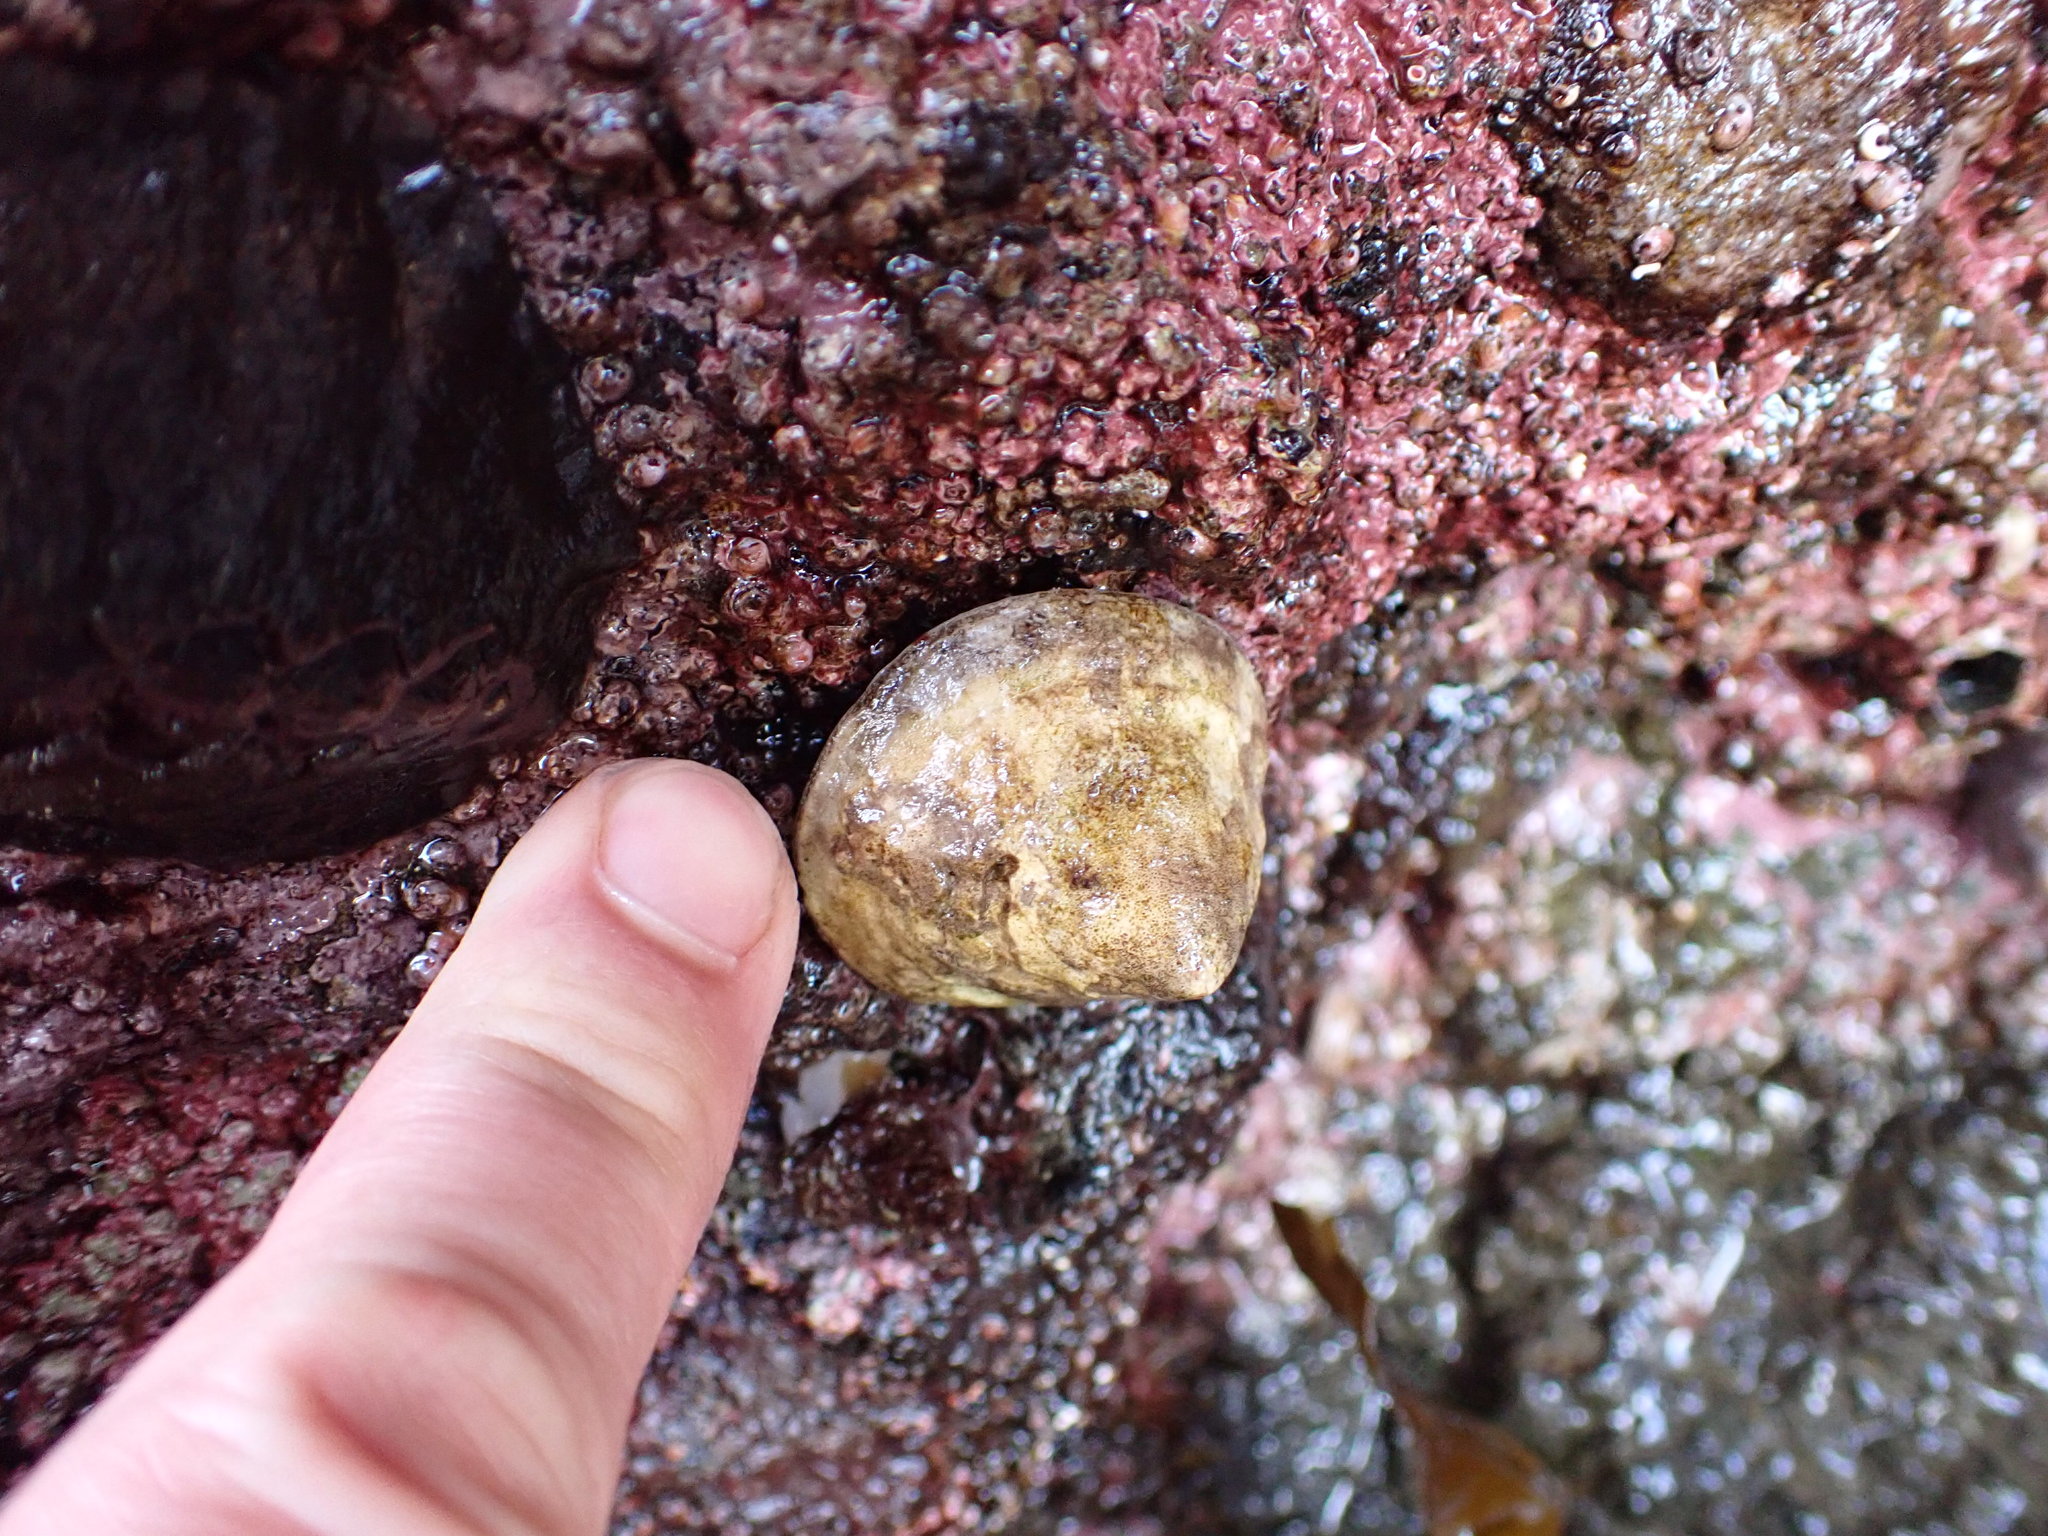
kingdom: Animalia
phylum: Mollusca
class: Gastropoda
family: Acmaeidae
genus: Acmaea
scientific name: Acmaea mitra
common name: Pacific white cap limpet
